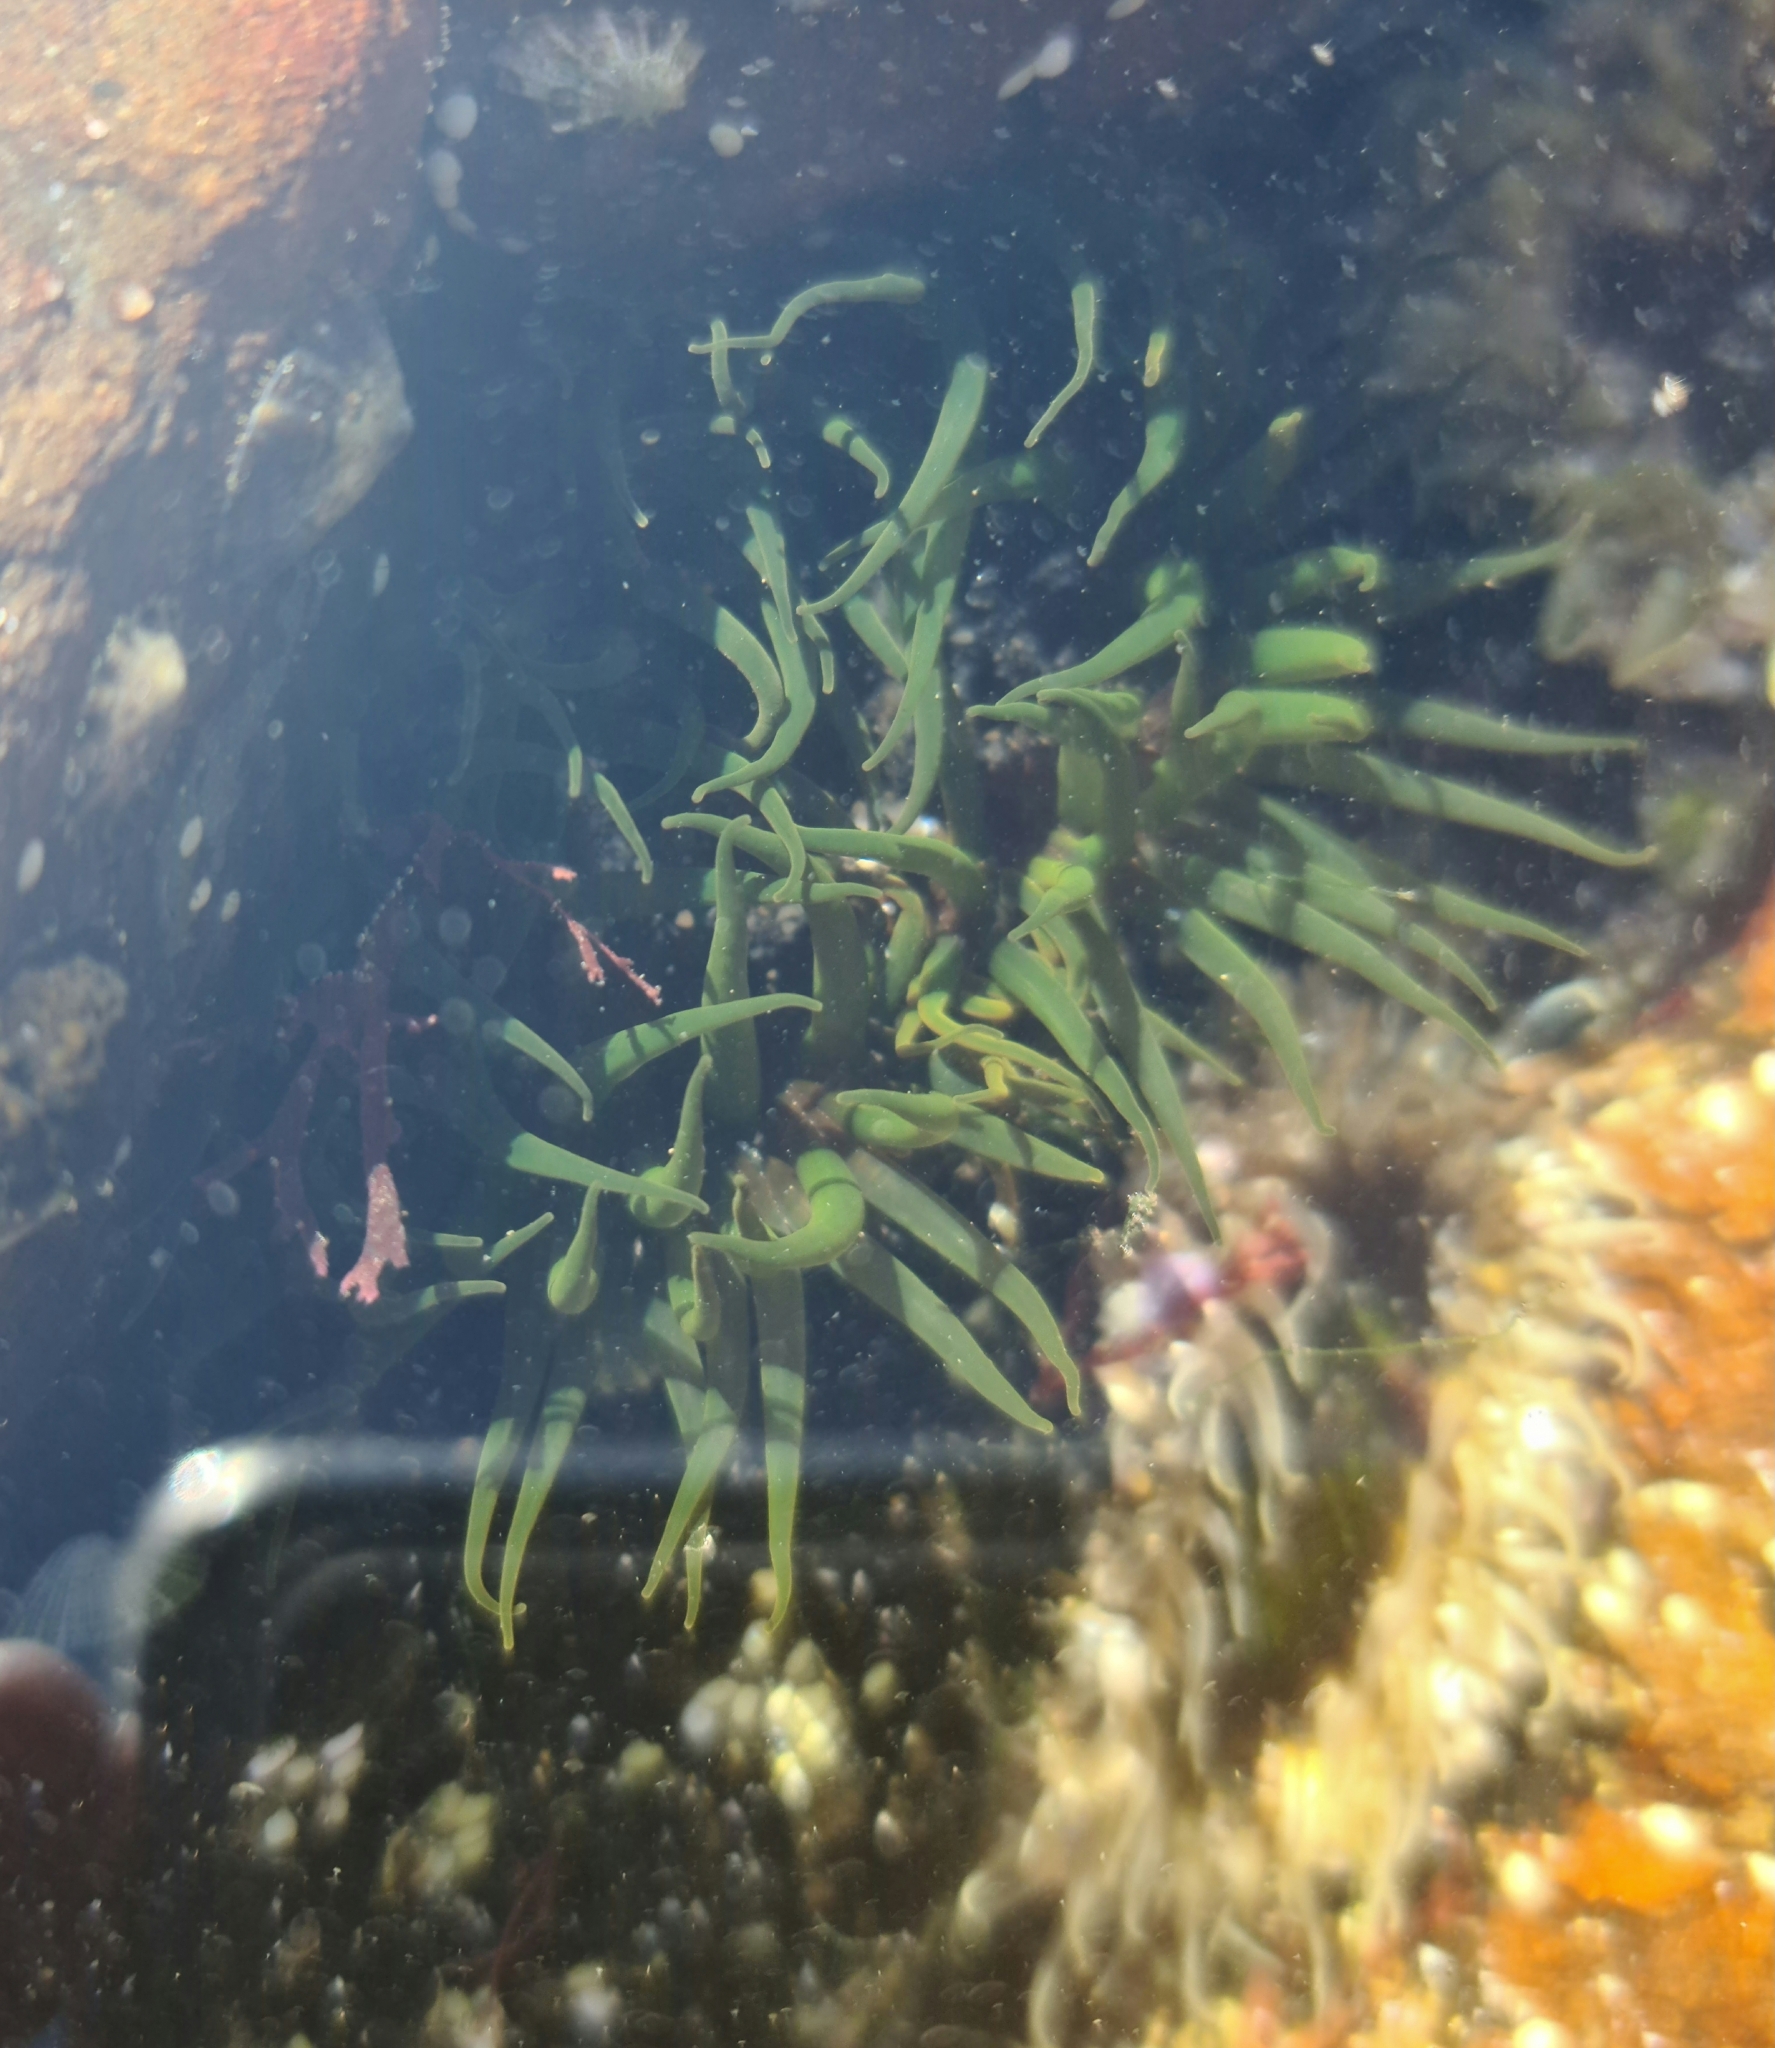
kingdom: Animalia
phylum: Cnidaria
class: Anthozoa
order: Actiniaria
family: Actiniidae
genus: Aulactinia
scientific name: Aulactinia veratra
